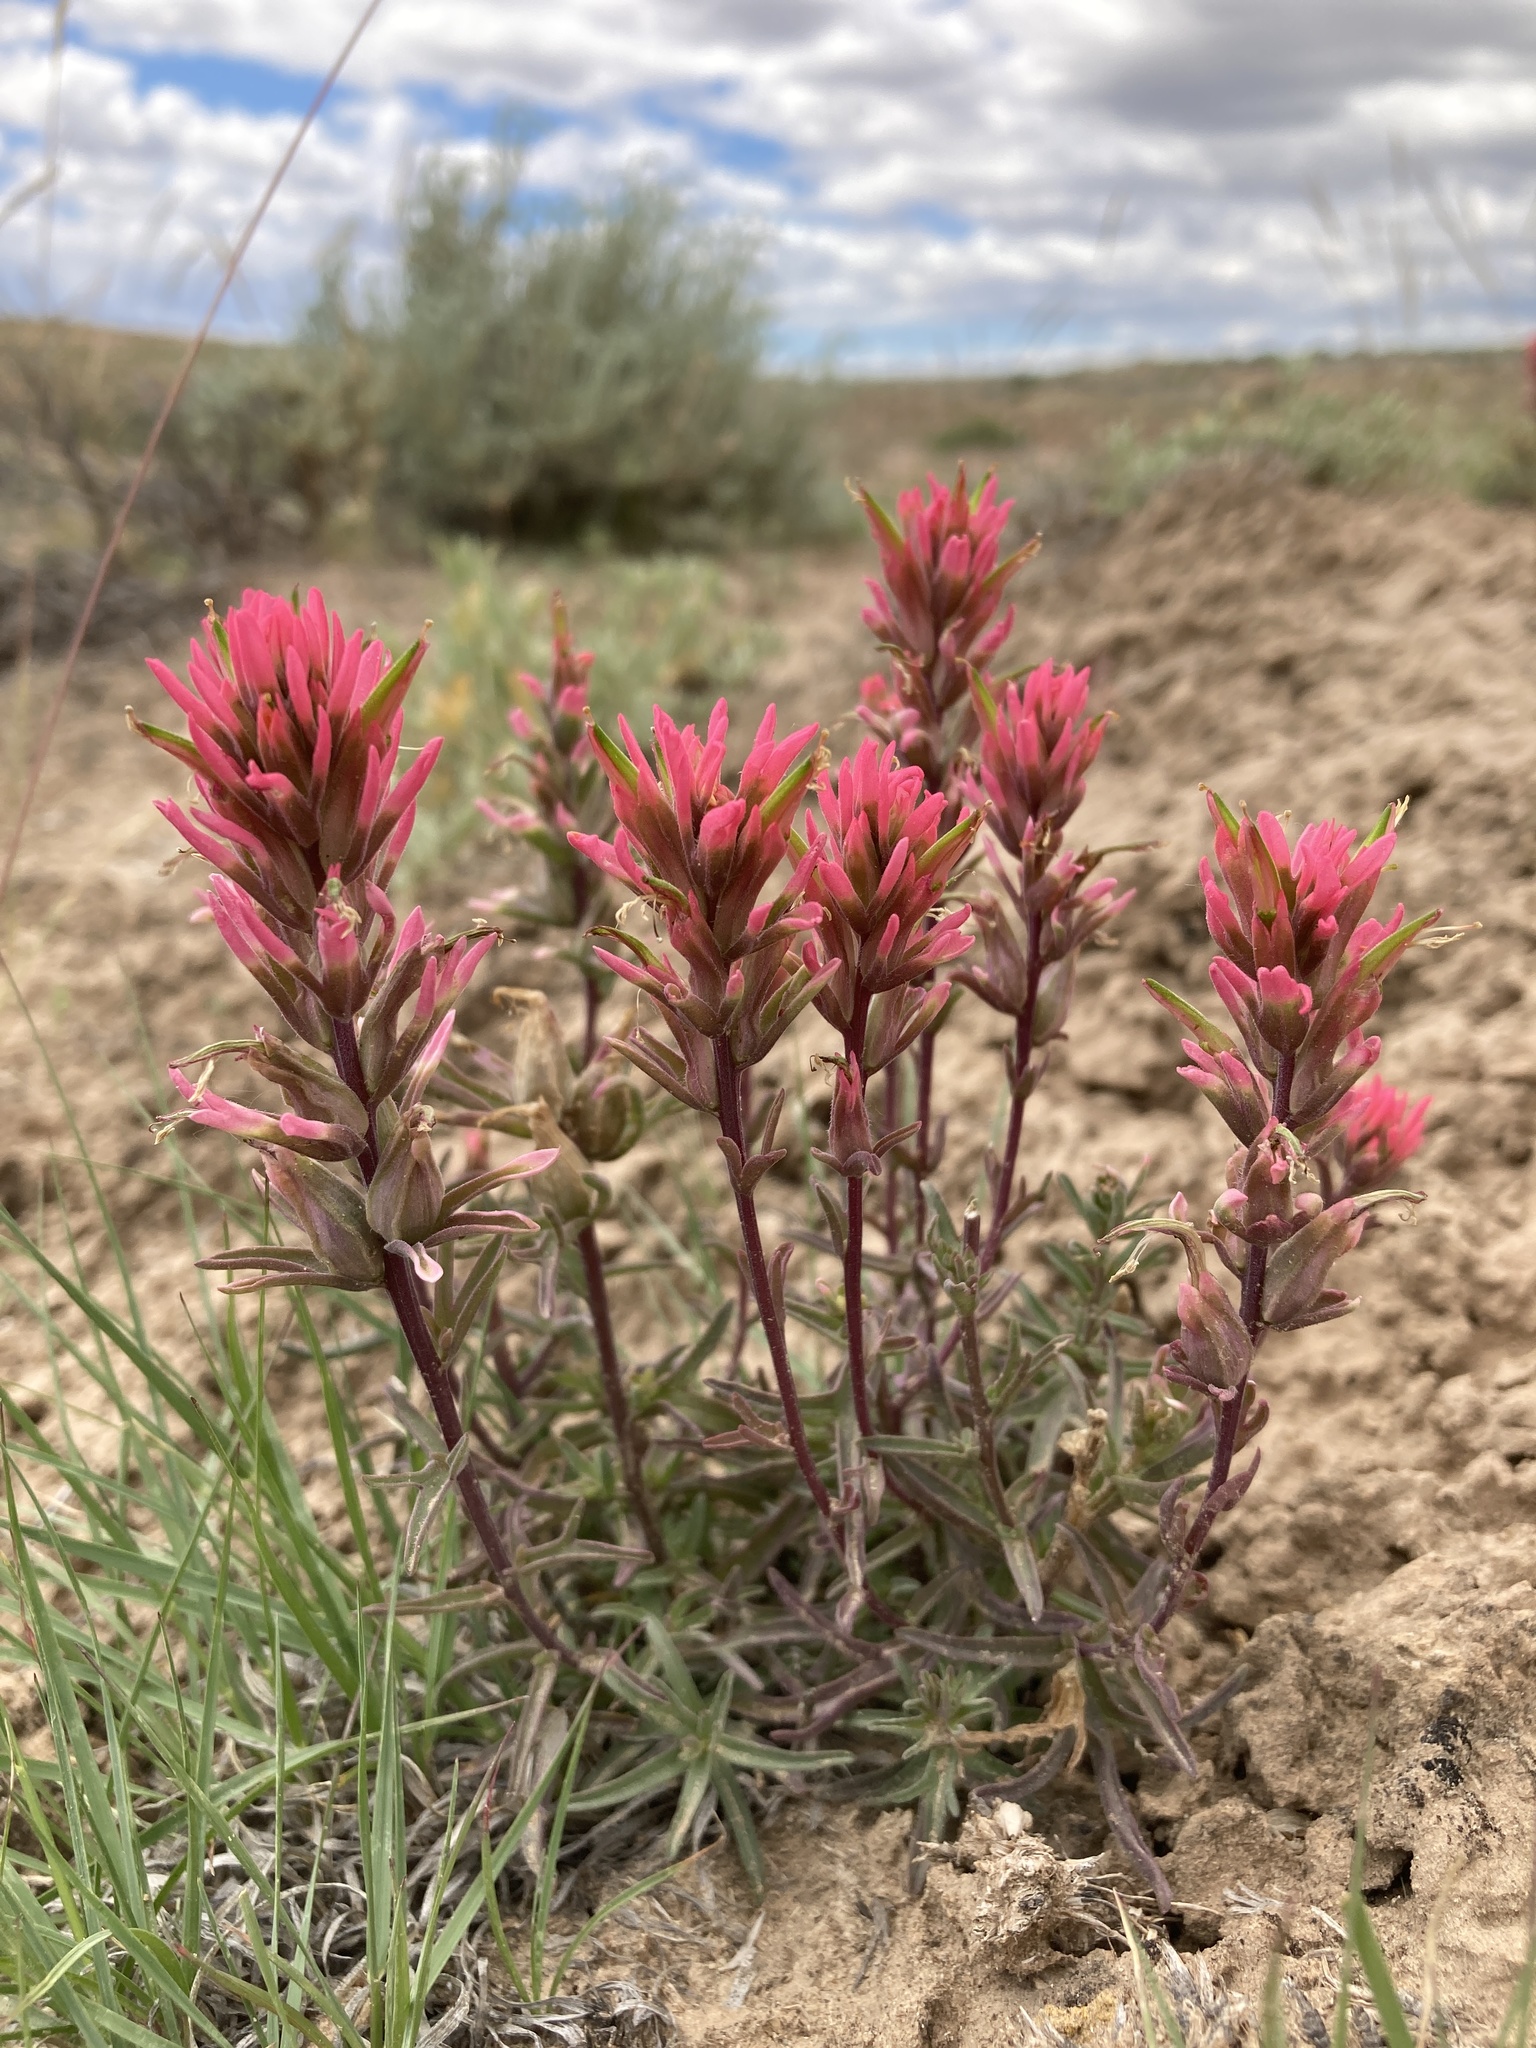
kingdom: Plantae
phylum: Tracheophyta
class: Magnoliopsida
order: Lamiales
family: Orobanchaceae
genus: Castilleja
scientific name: Castilleja angustifolia
